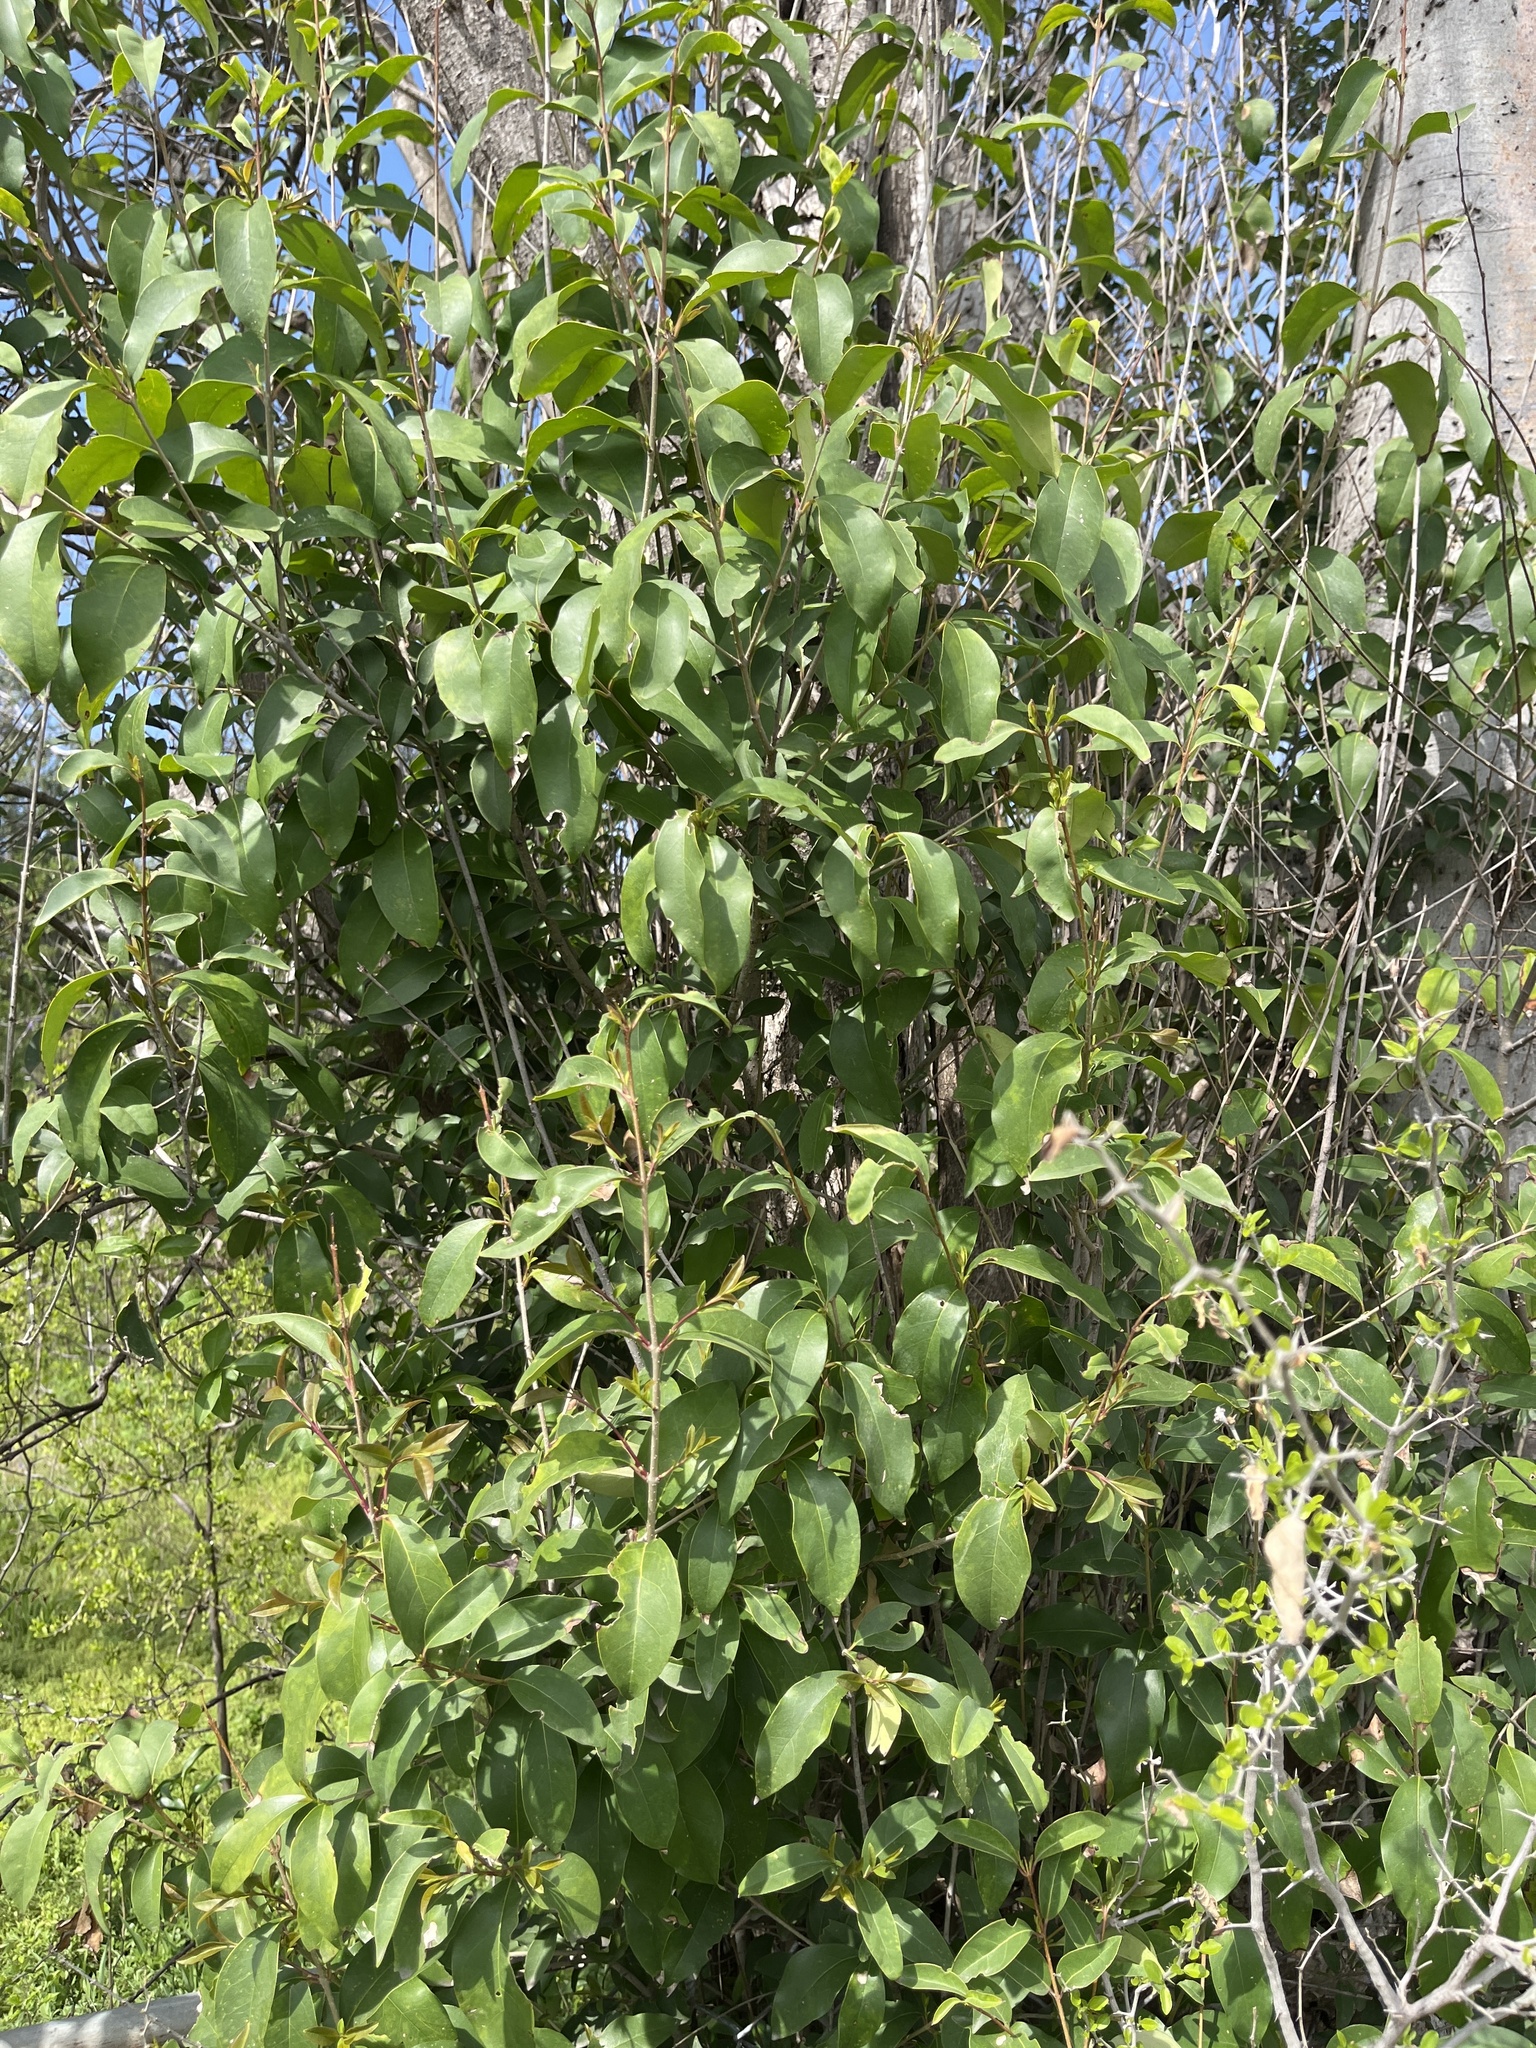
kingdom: Plantae
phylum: Tracheophyta
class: Magnoliopsida
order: Lamiales
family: Oleaceae
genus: Ligustrum
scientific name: Ligustrum lucidum
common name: Glossy privet
